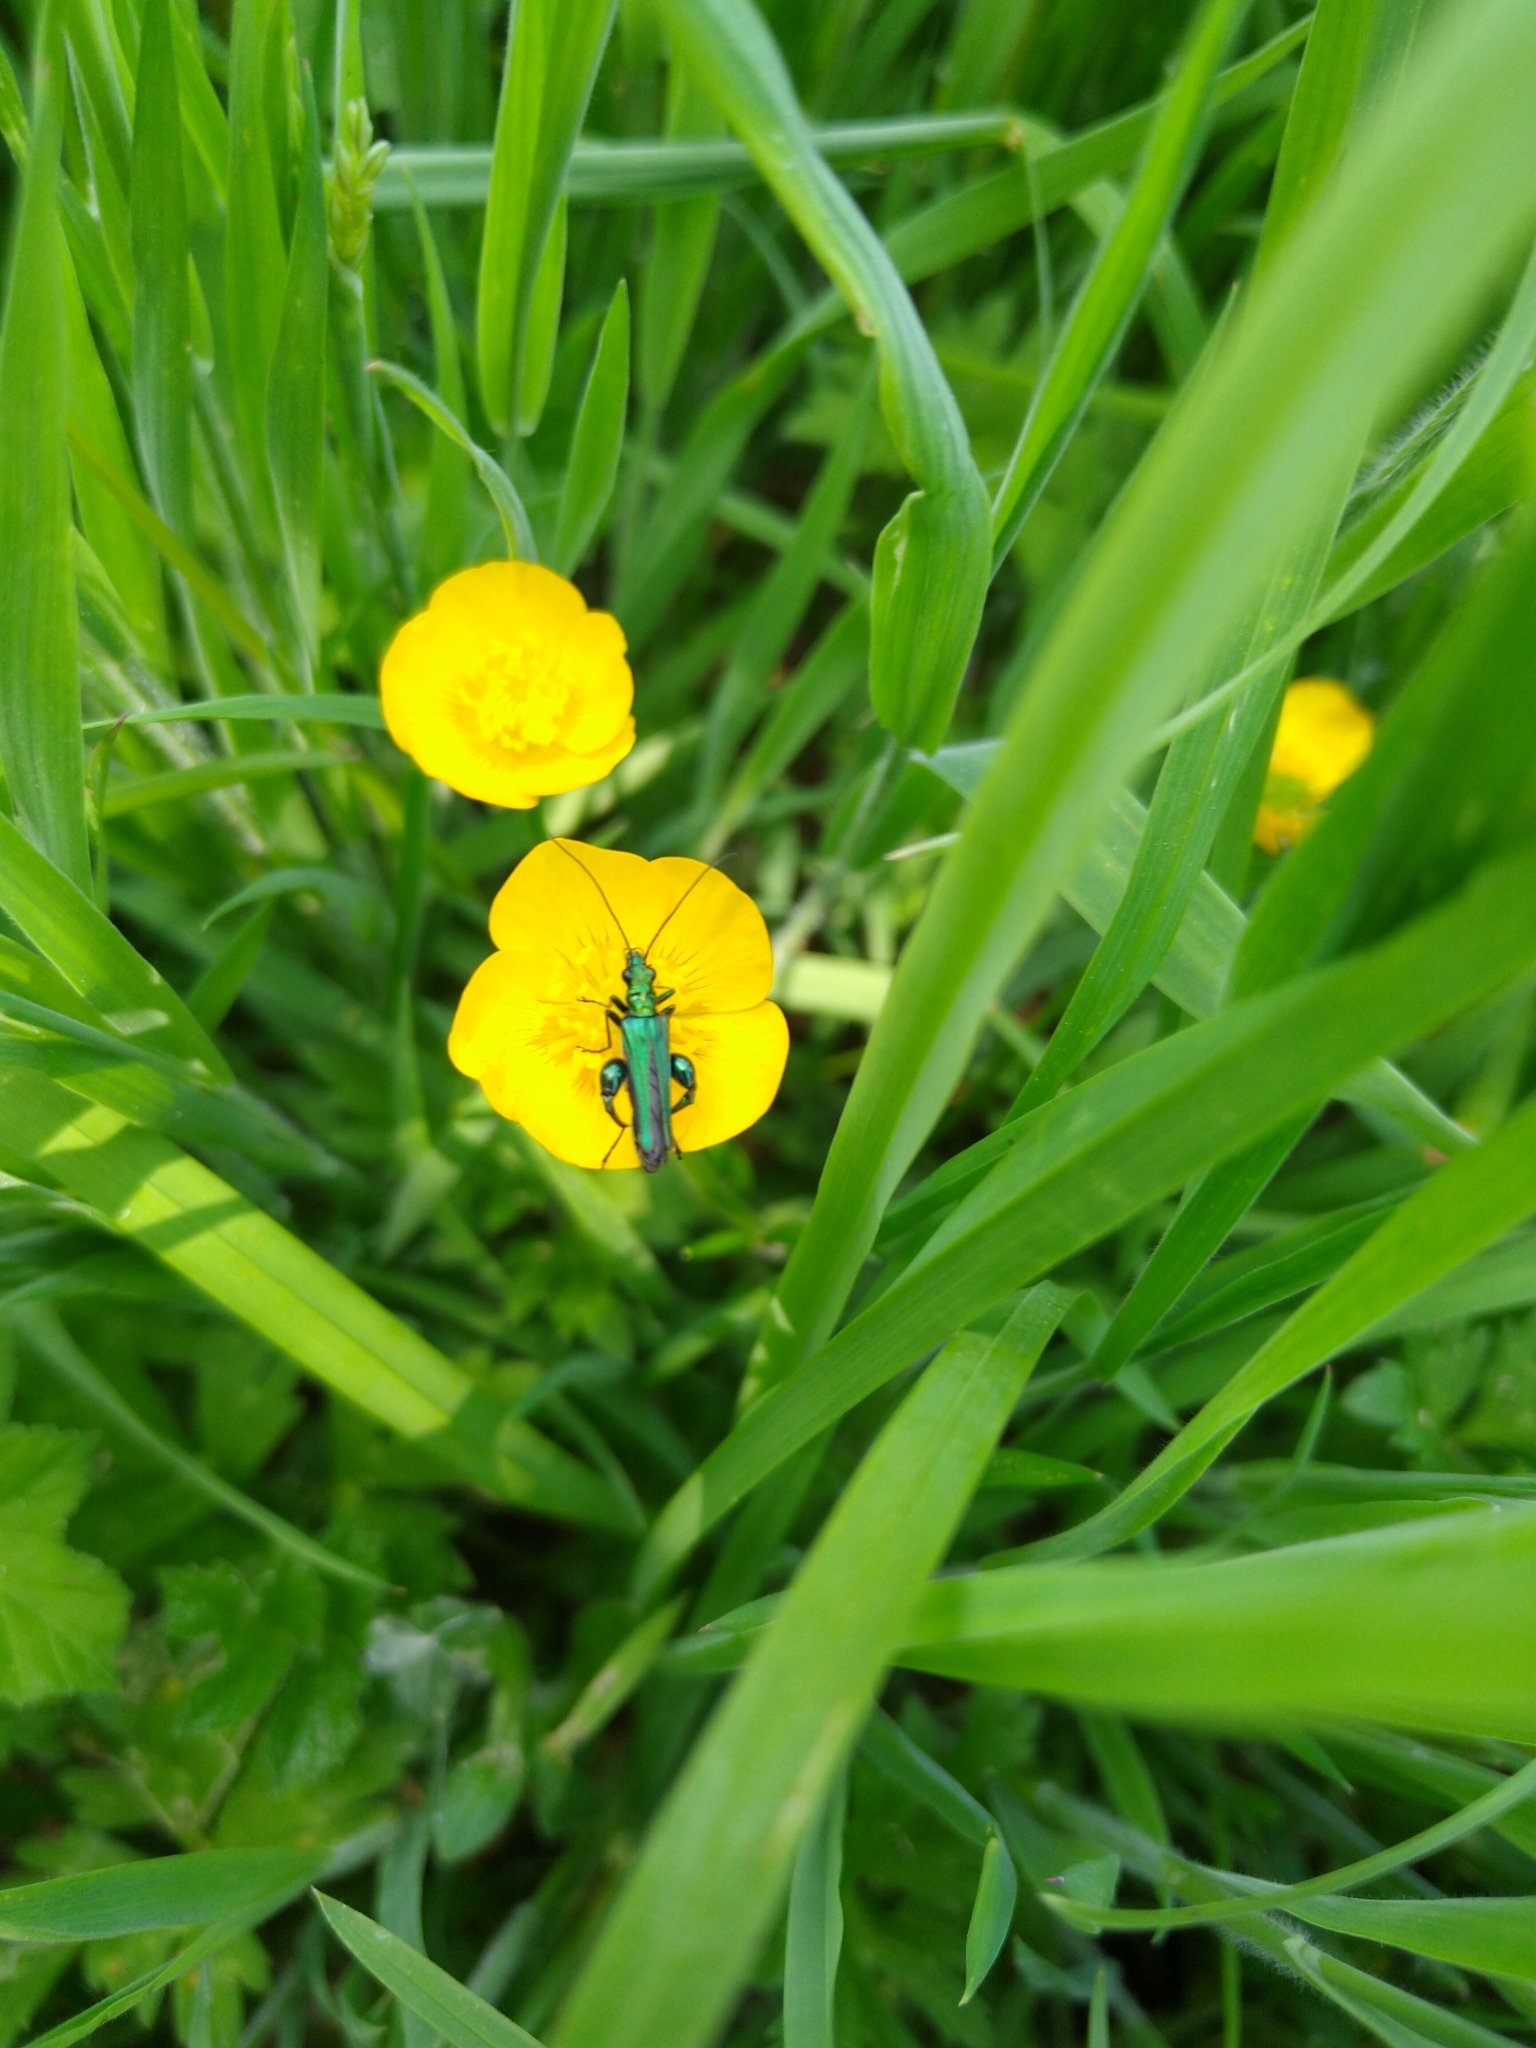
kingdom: Animalia
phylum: Arthropoda
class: Insecta
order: Coleoptera
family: Oedemeridae
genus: Oedemera
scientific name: Oedemera nobilis
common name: Swollen-thighed beetle
